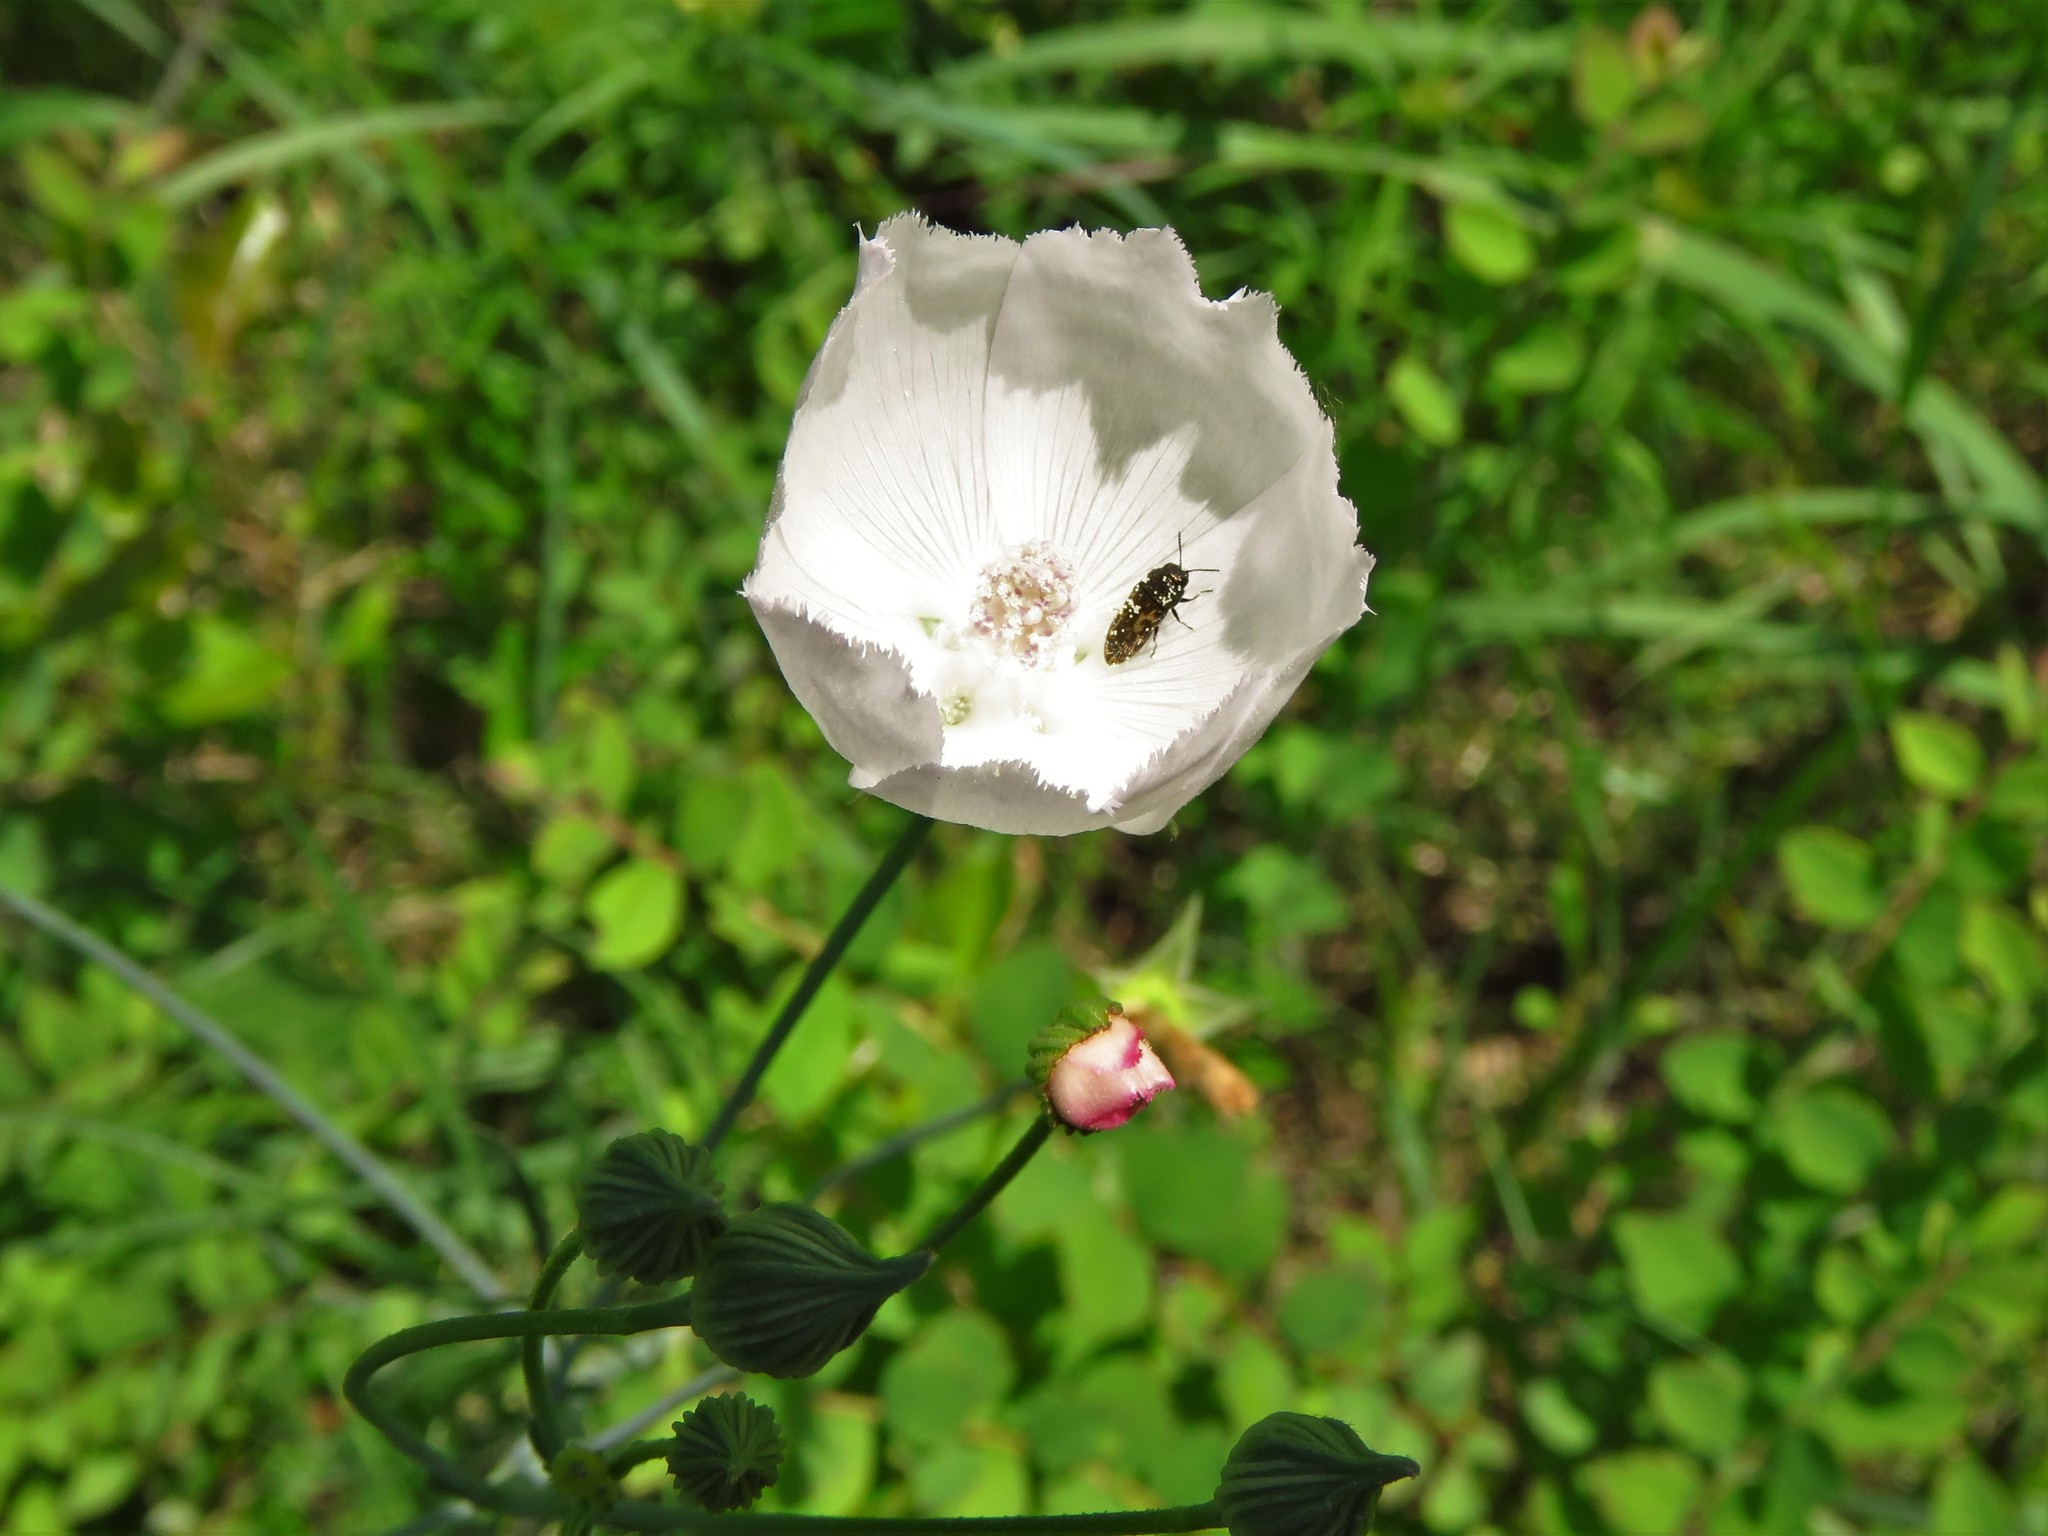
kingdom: Plantae
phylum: Tracheophyta
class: Magnoliopsida
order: Malvales
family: Malvaceae
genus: Callirhoe
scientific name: Callirhoe pedata
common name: Finger poppy-mallow
